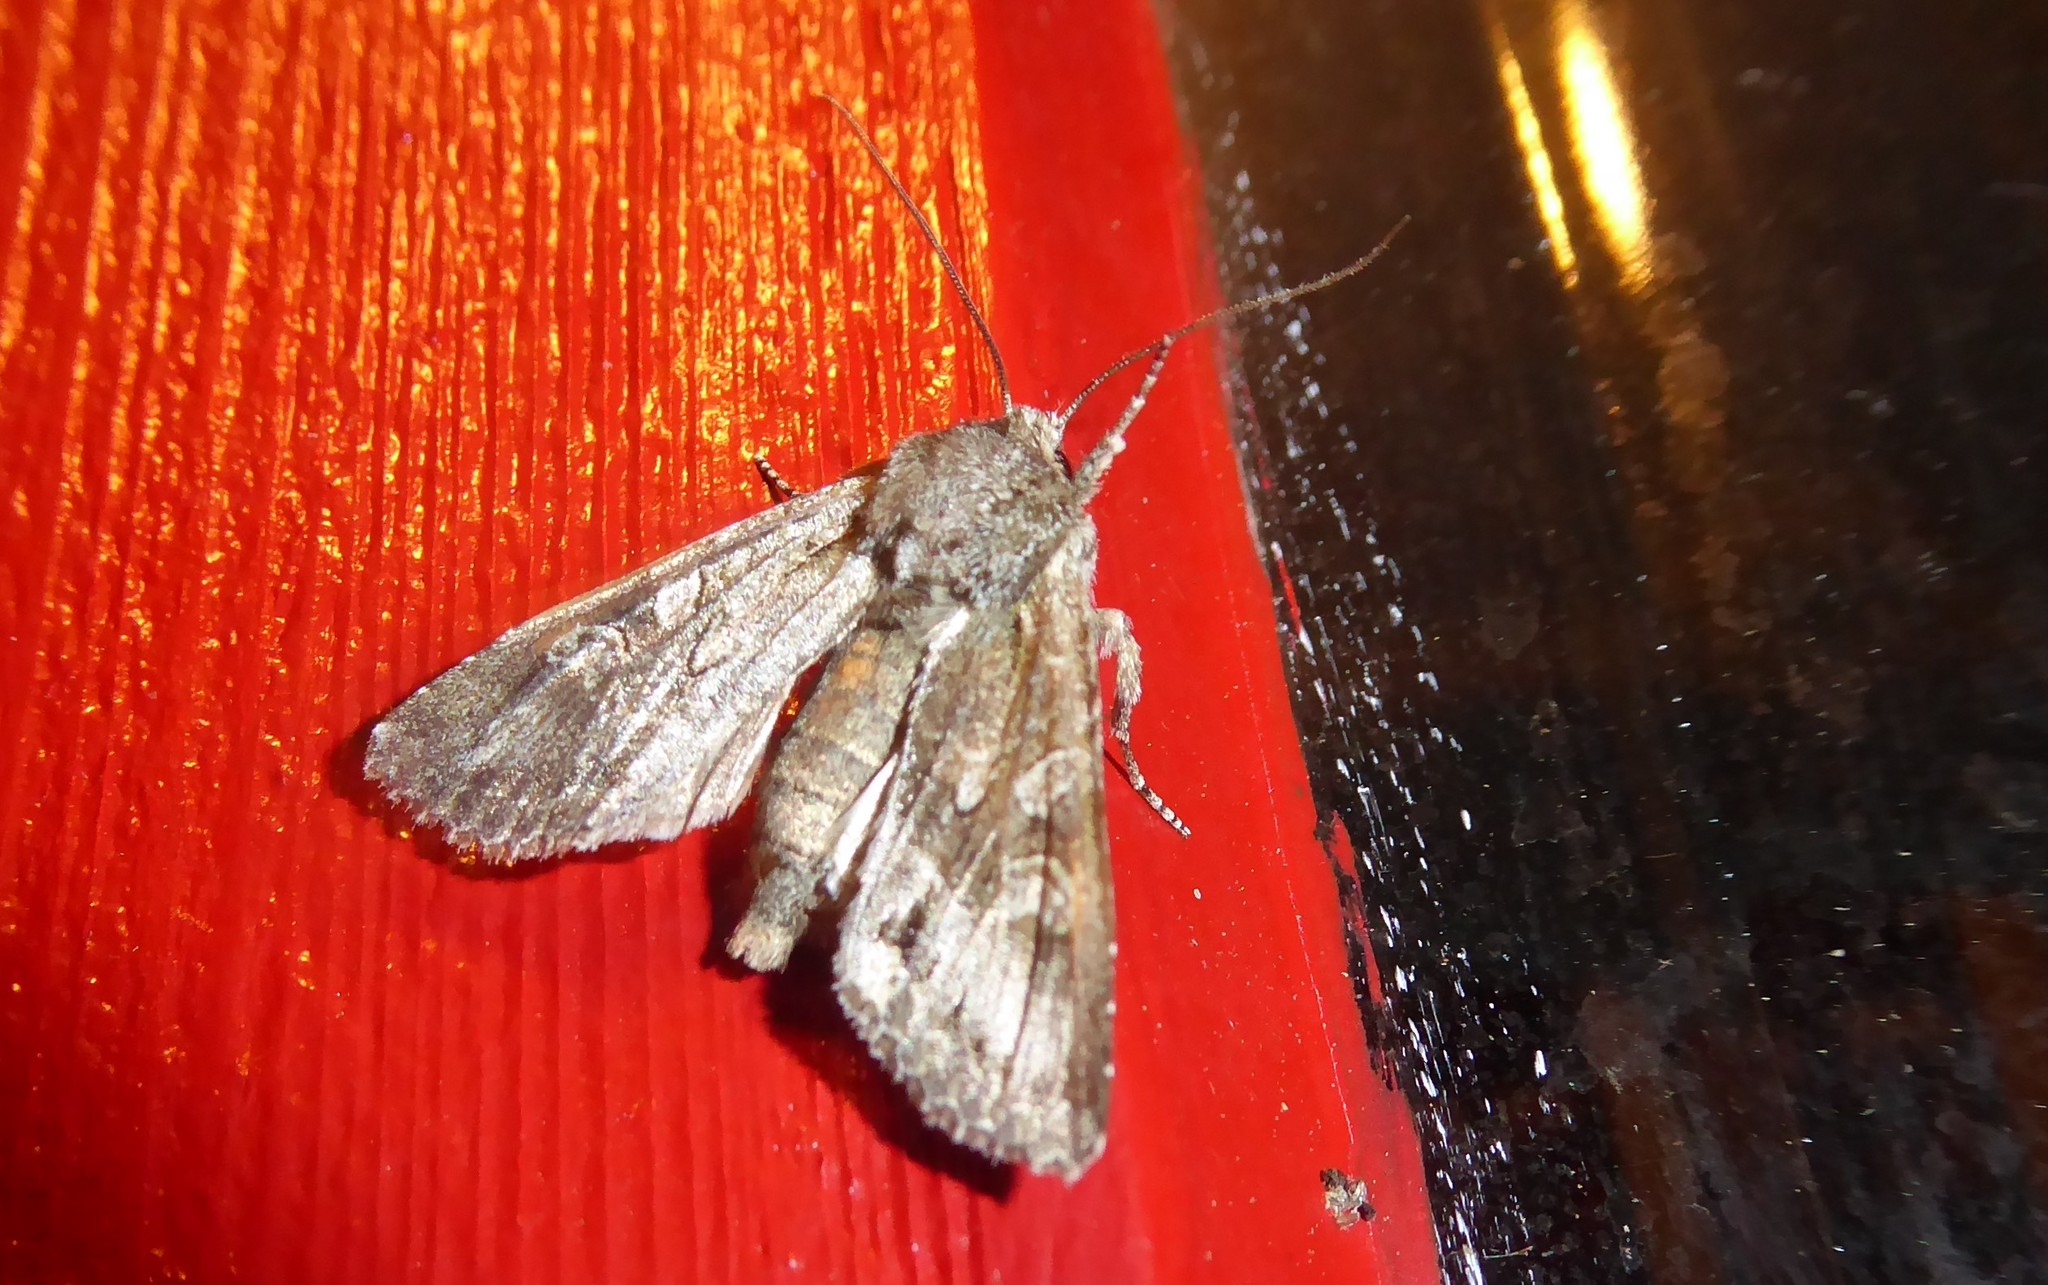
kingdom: Animalia
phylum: Arthropoda
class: Insecta
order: Lepidoptera
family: Noctuidae
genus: Ichneutica
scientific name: Ichneutica mutans
